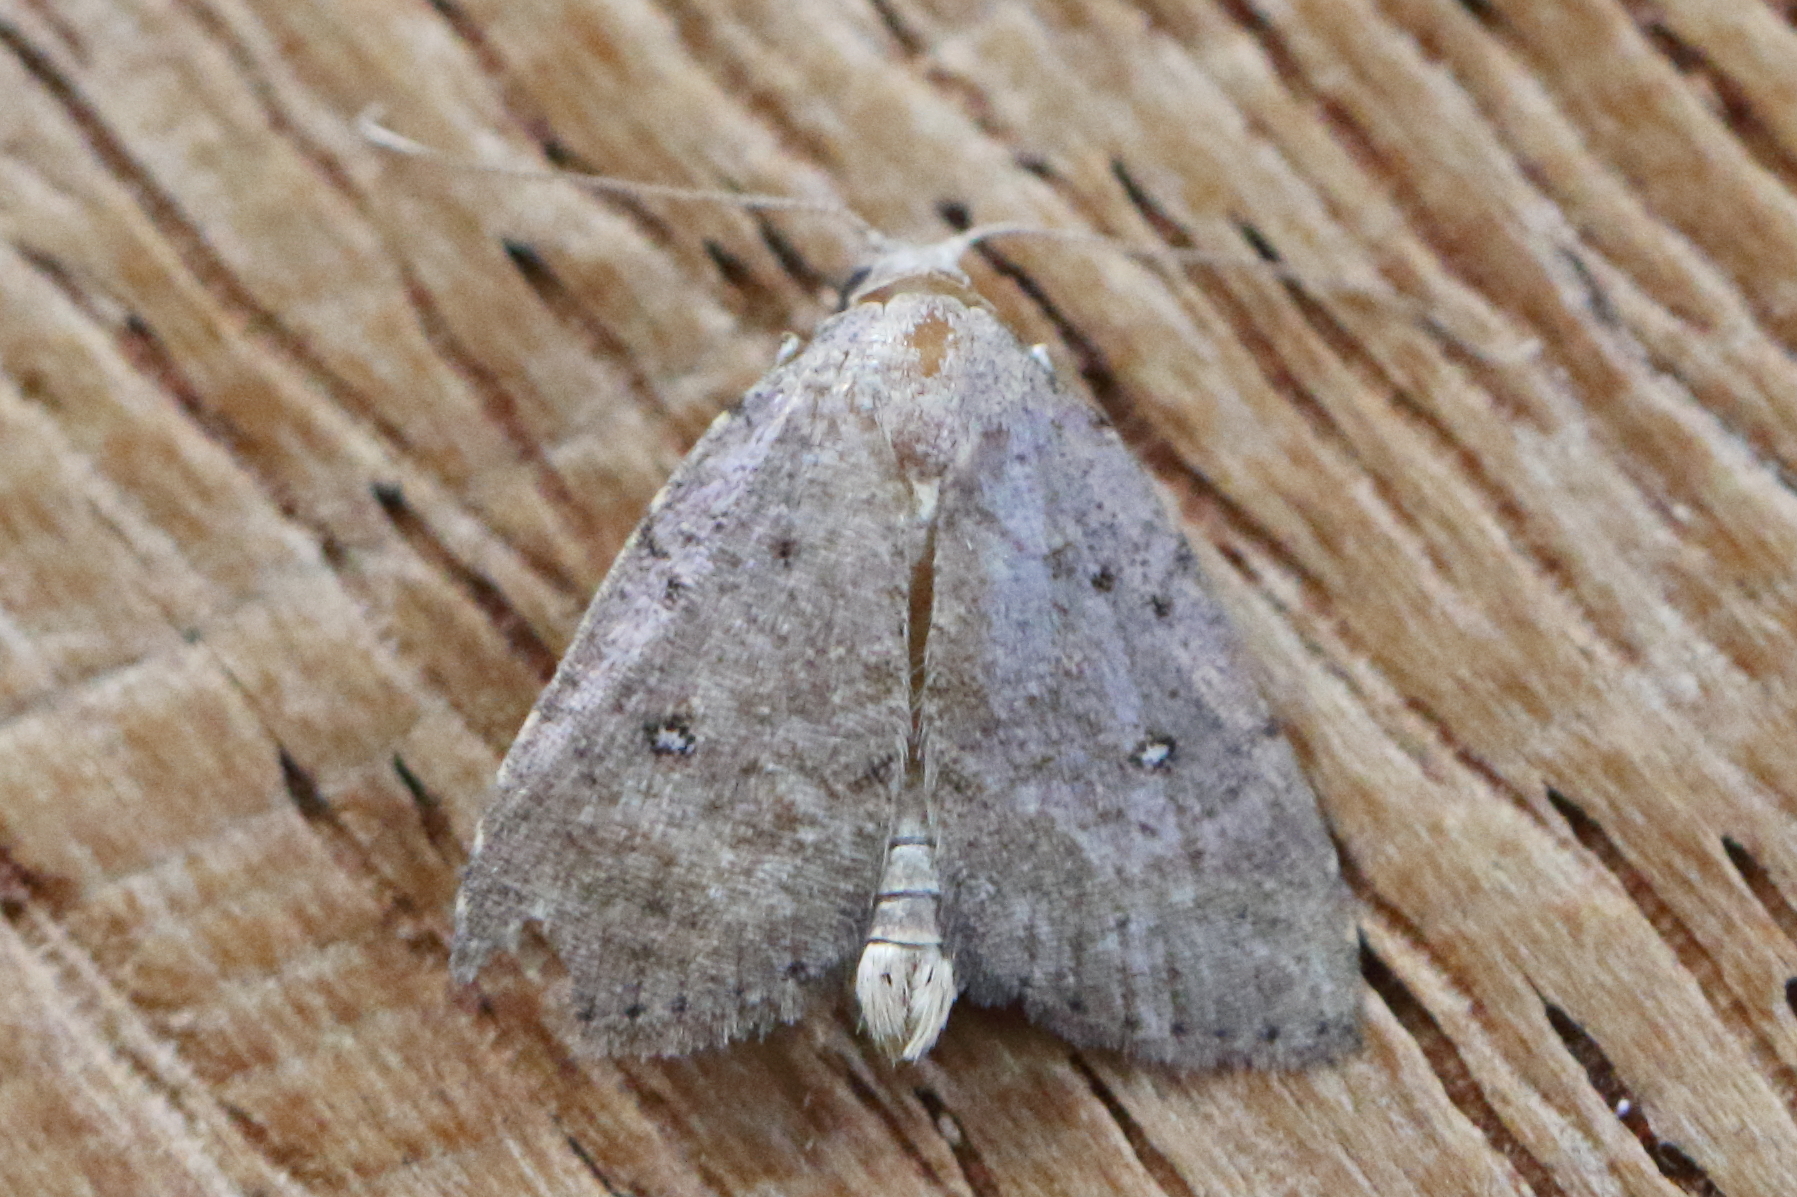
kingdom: Animalia
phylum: Arthropoda
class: Insecta
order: Lepidoptera
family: Erebidae
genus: Tolpiodes
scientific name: Tolpiodes oligolasia
